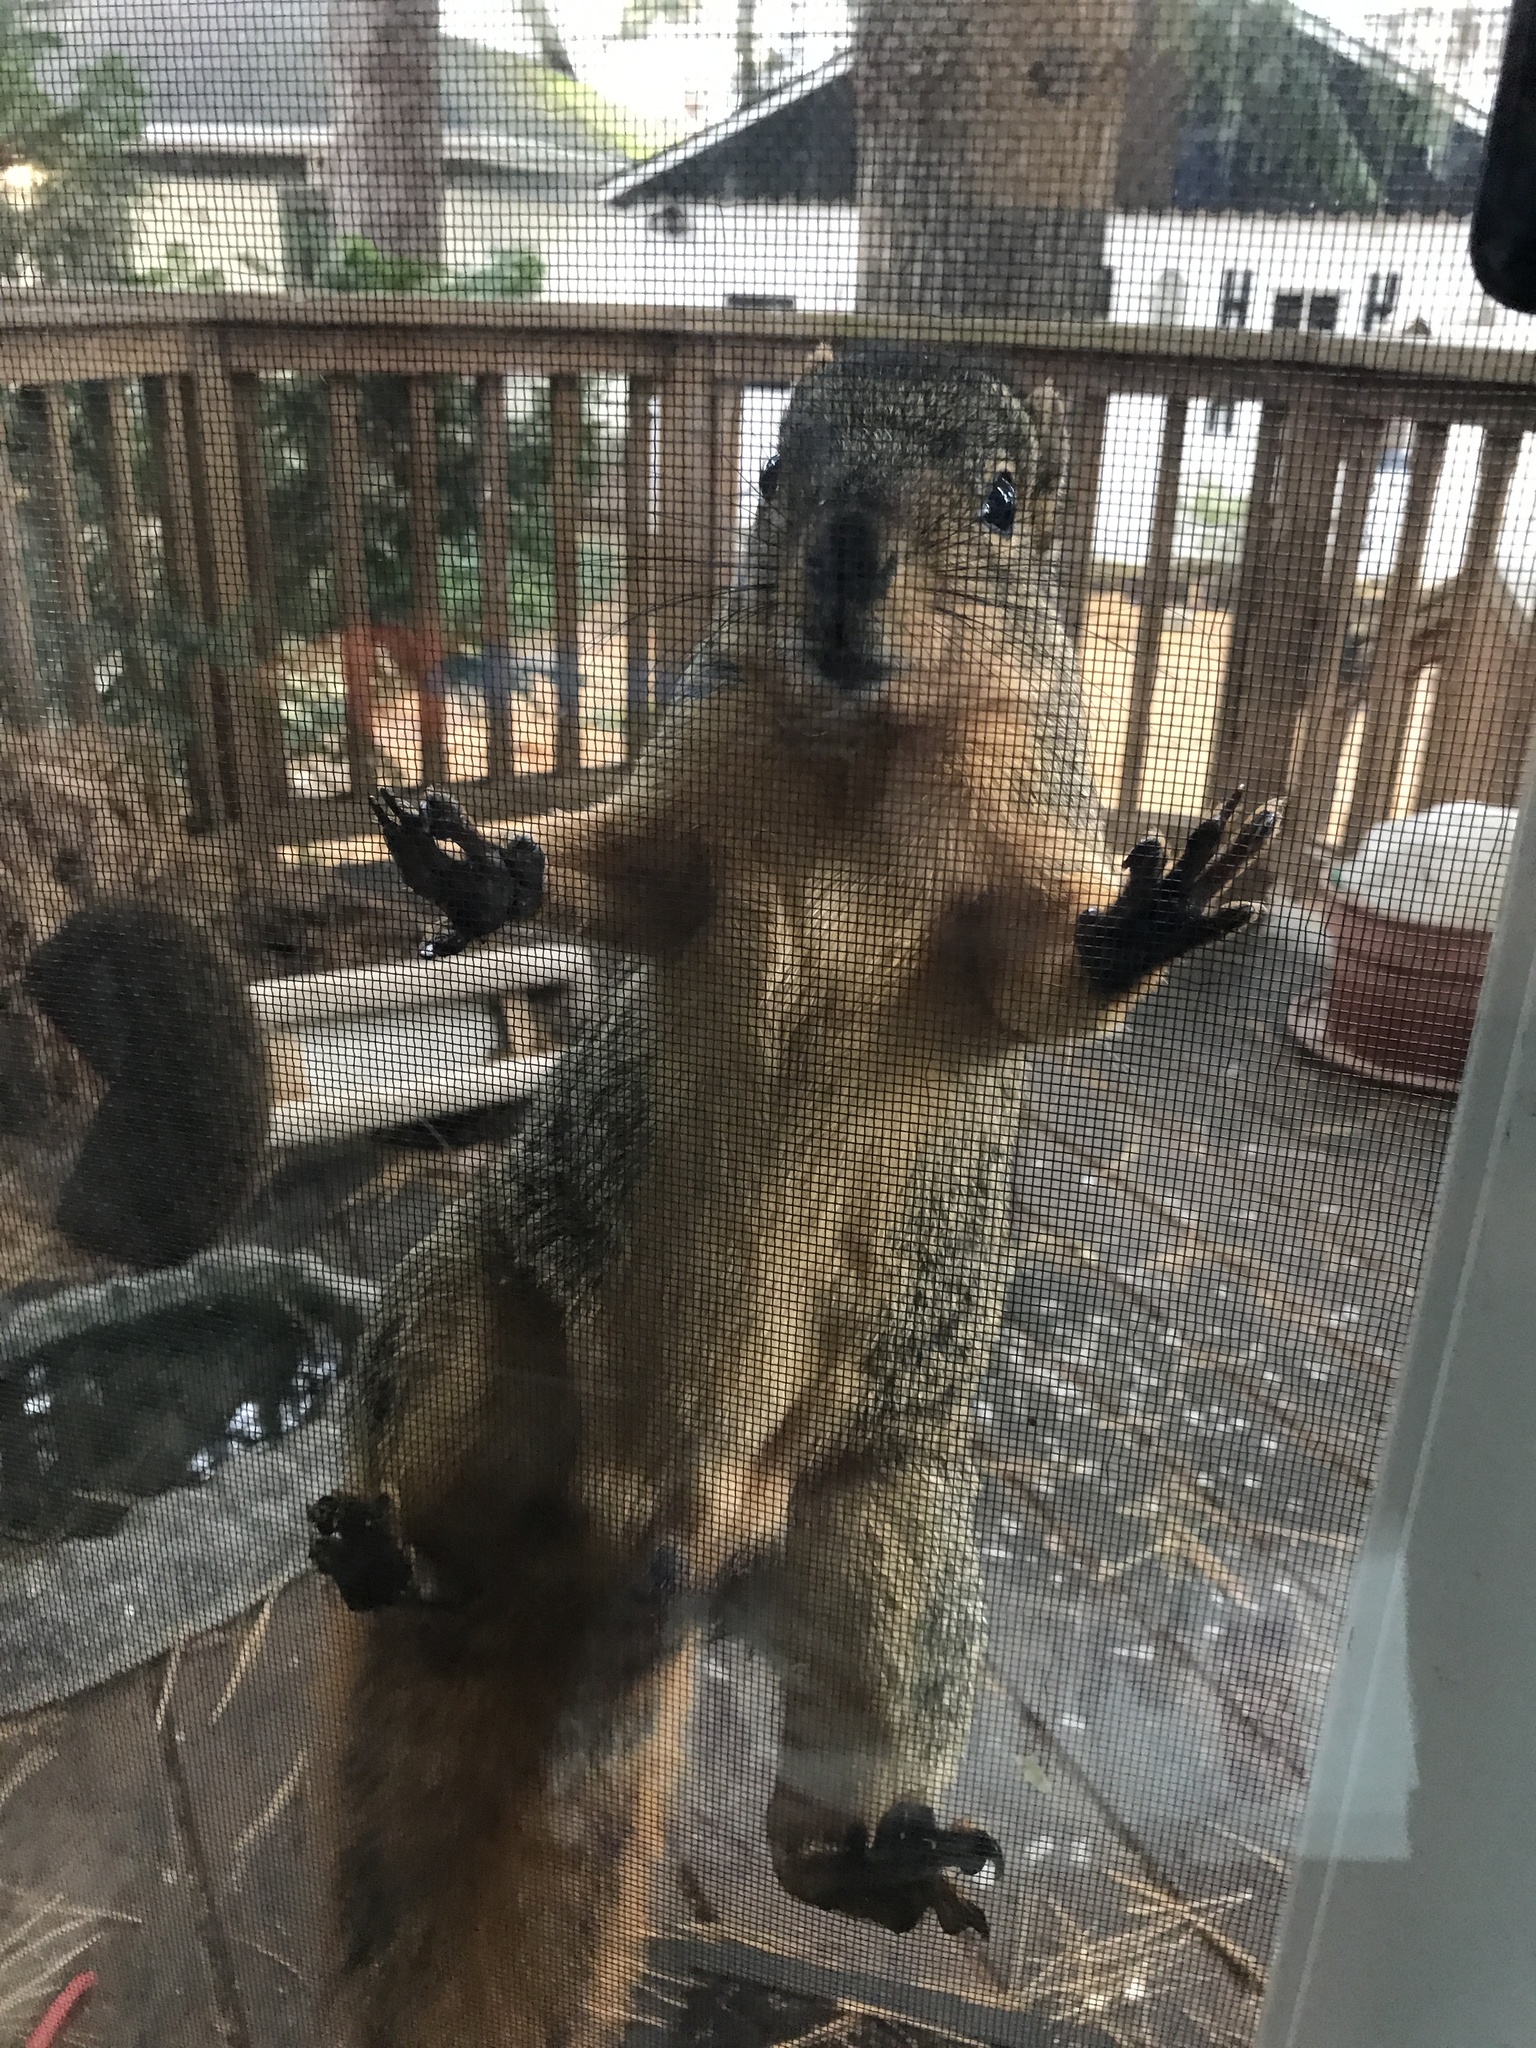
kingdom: Animalia
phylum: Chordata
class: Mammalia
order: Rodentia
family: Sciuridae
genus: Sciurus
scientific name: Sciurus niger
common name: Fox squirrel
